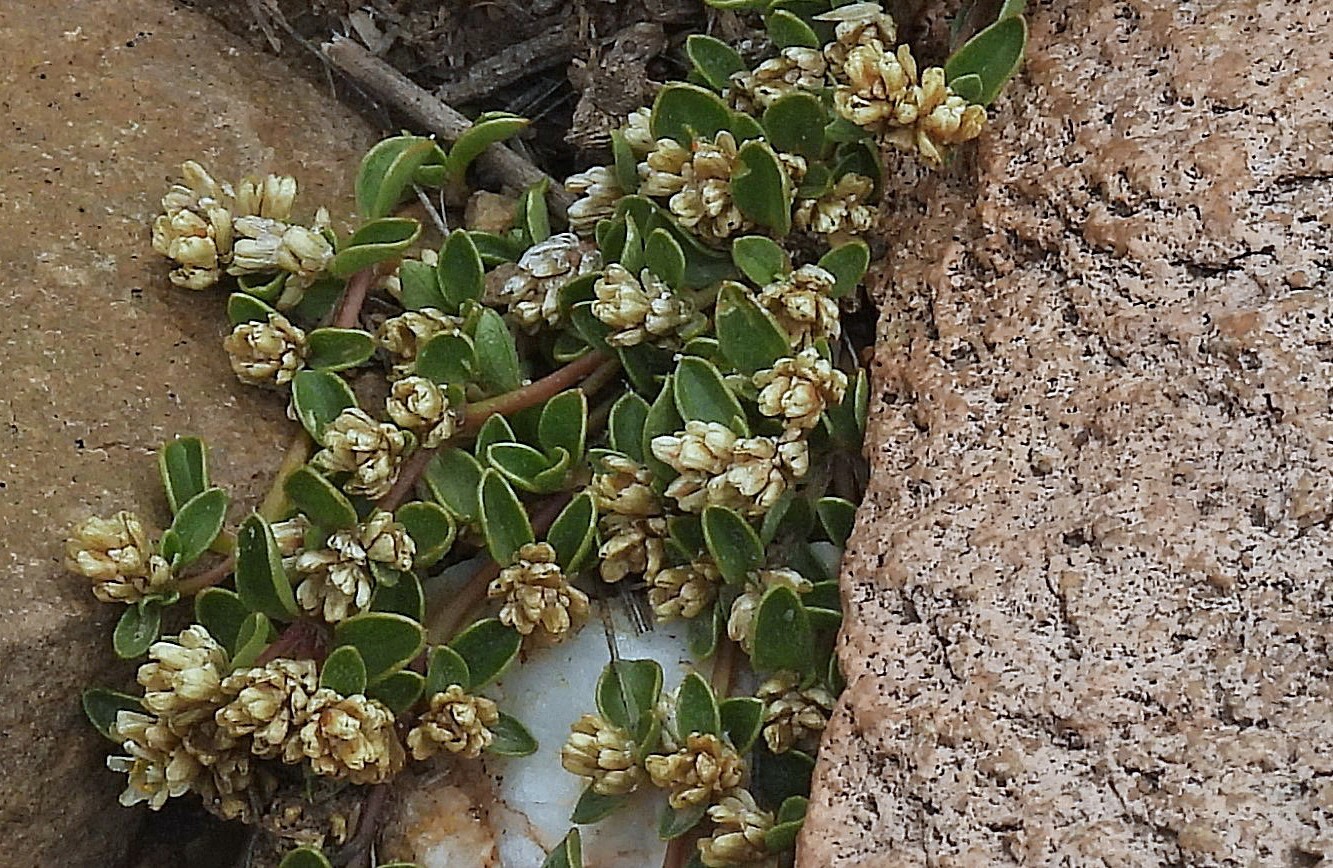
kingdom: Plantae
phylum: Tracheophyta
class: Magnoliopsida
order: Caryophyllales
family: Amaranthaceae
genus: Alternanthera
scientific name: Alternanthera microphylla
